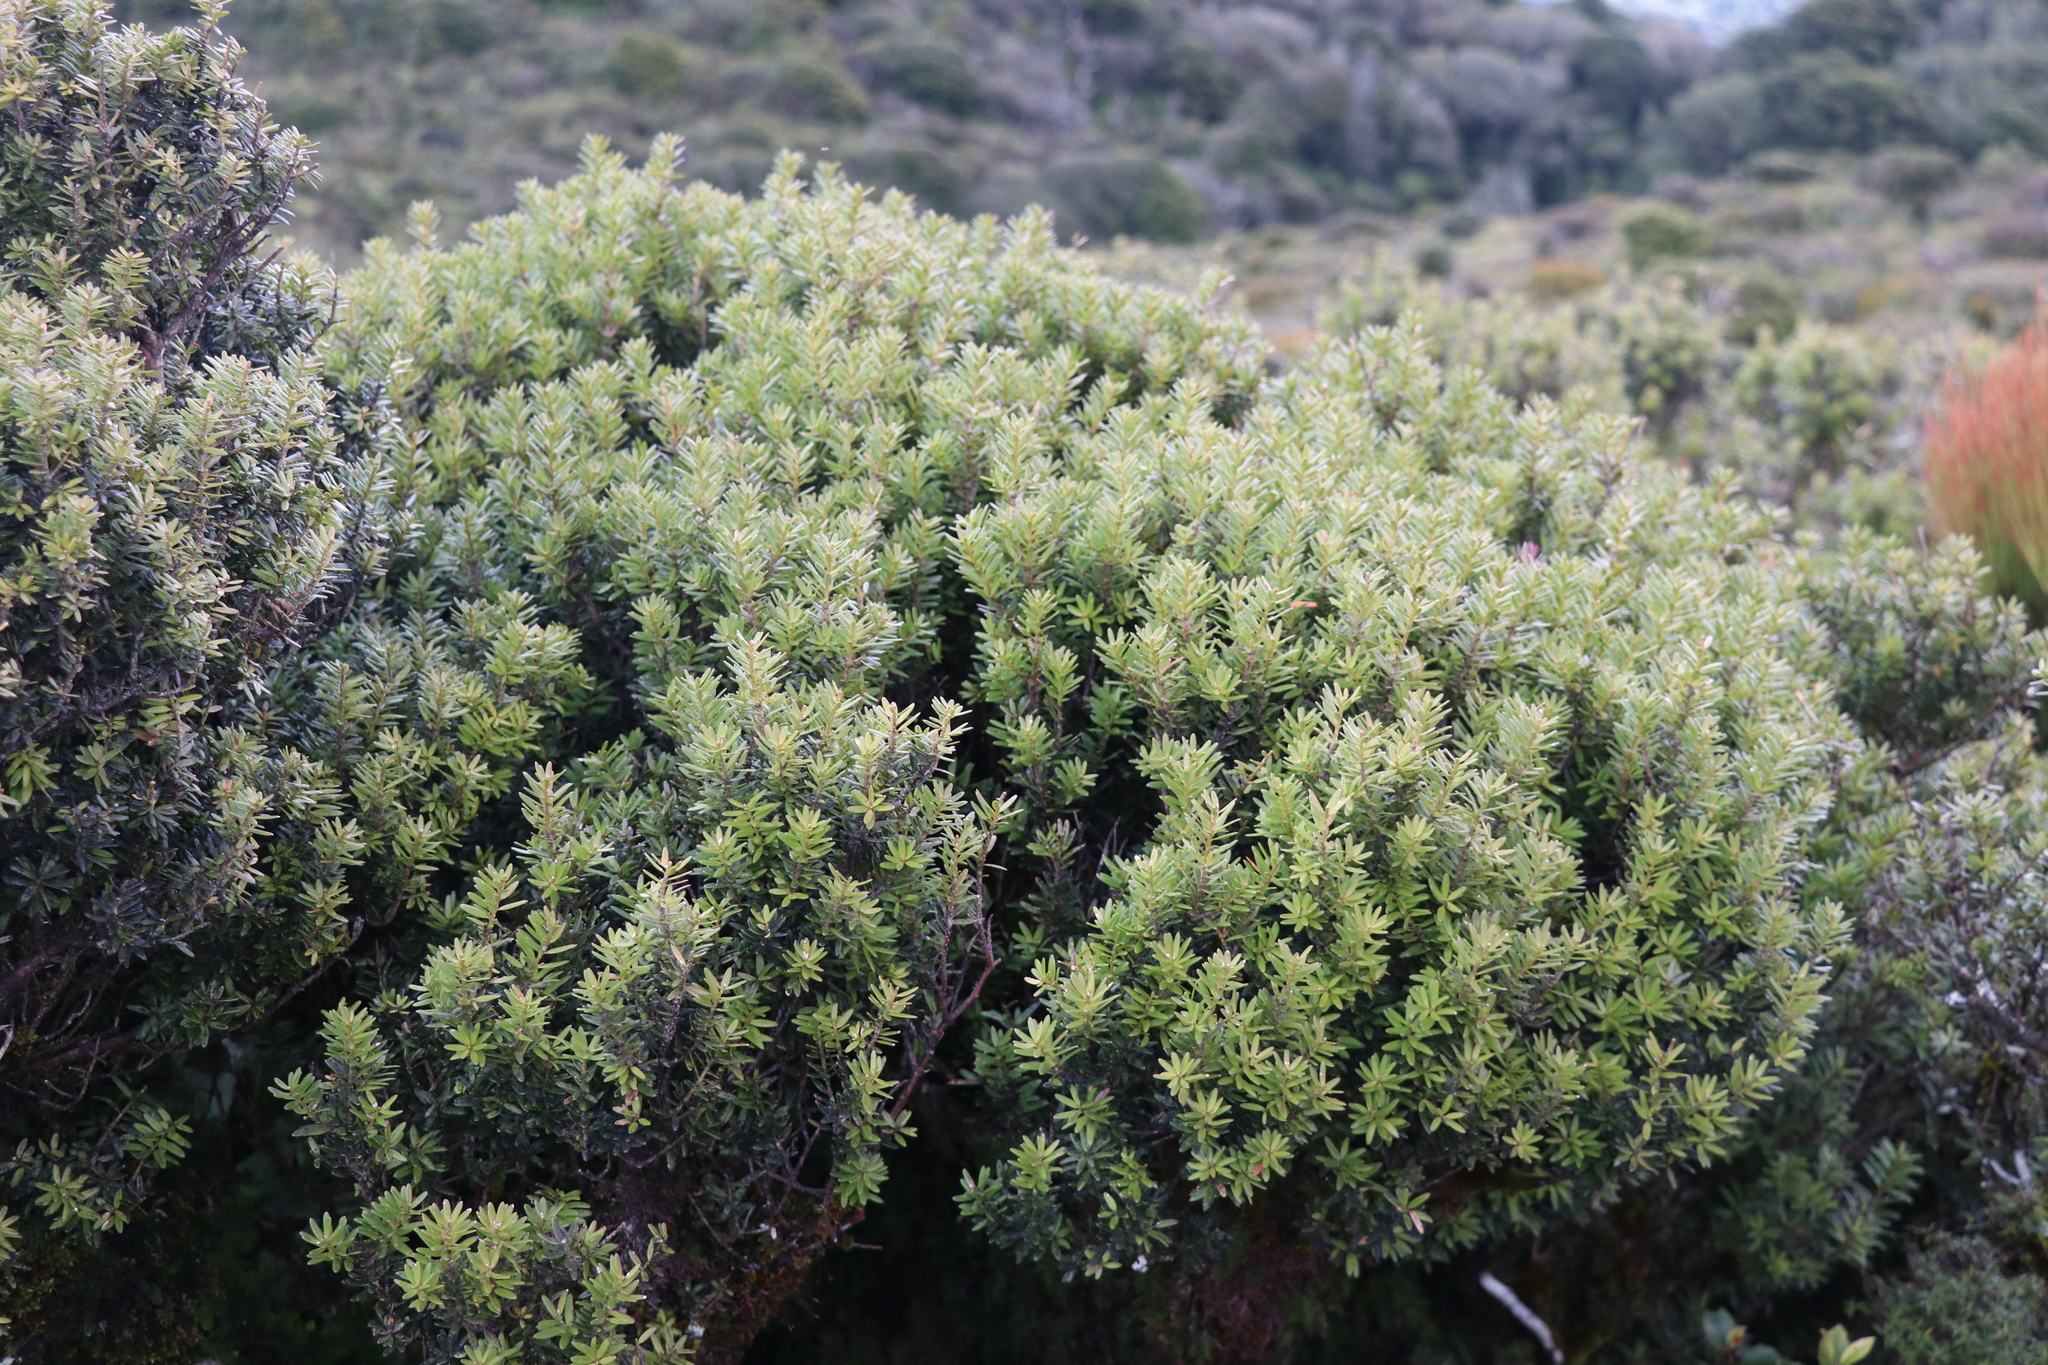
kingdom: Plantae
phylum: Tracheophyta
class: Pinopsida
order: Pinales
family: Podocarpaceae
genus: Podocarpus
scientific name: Podocarpus laetus
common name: Hall's totara
